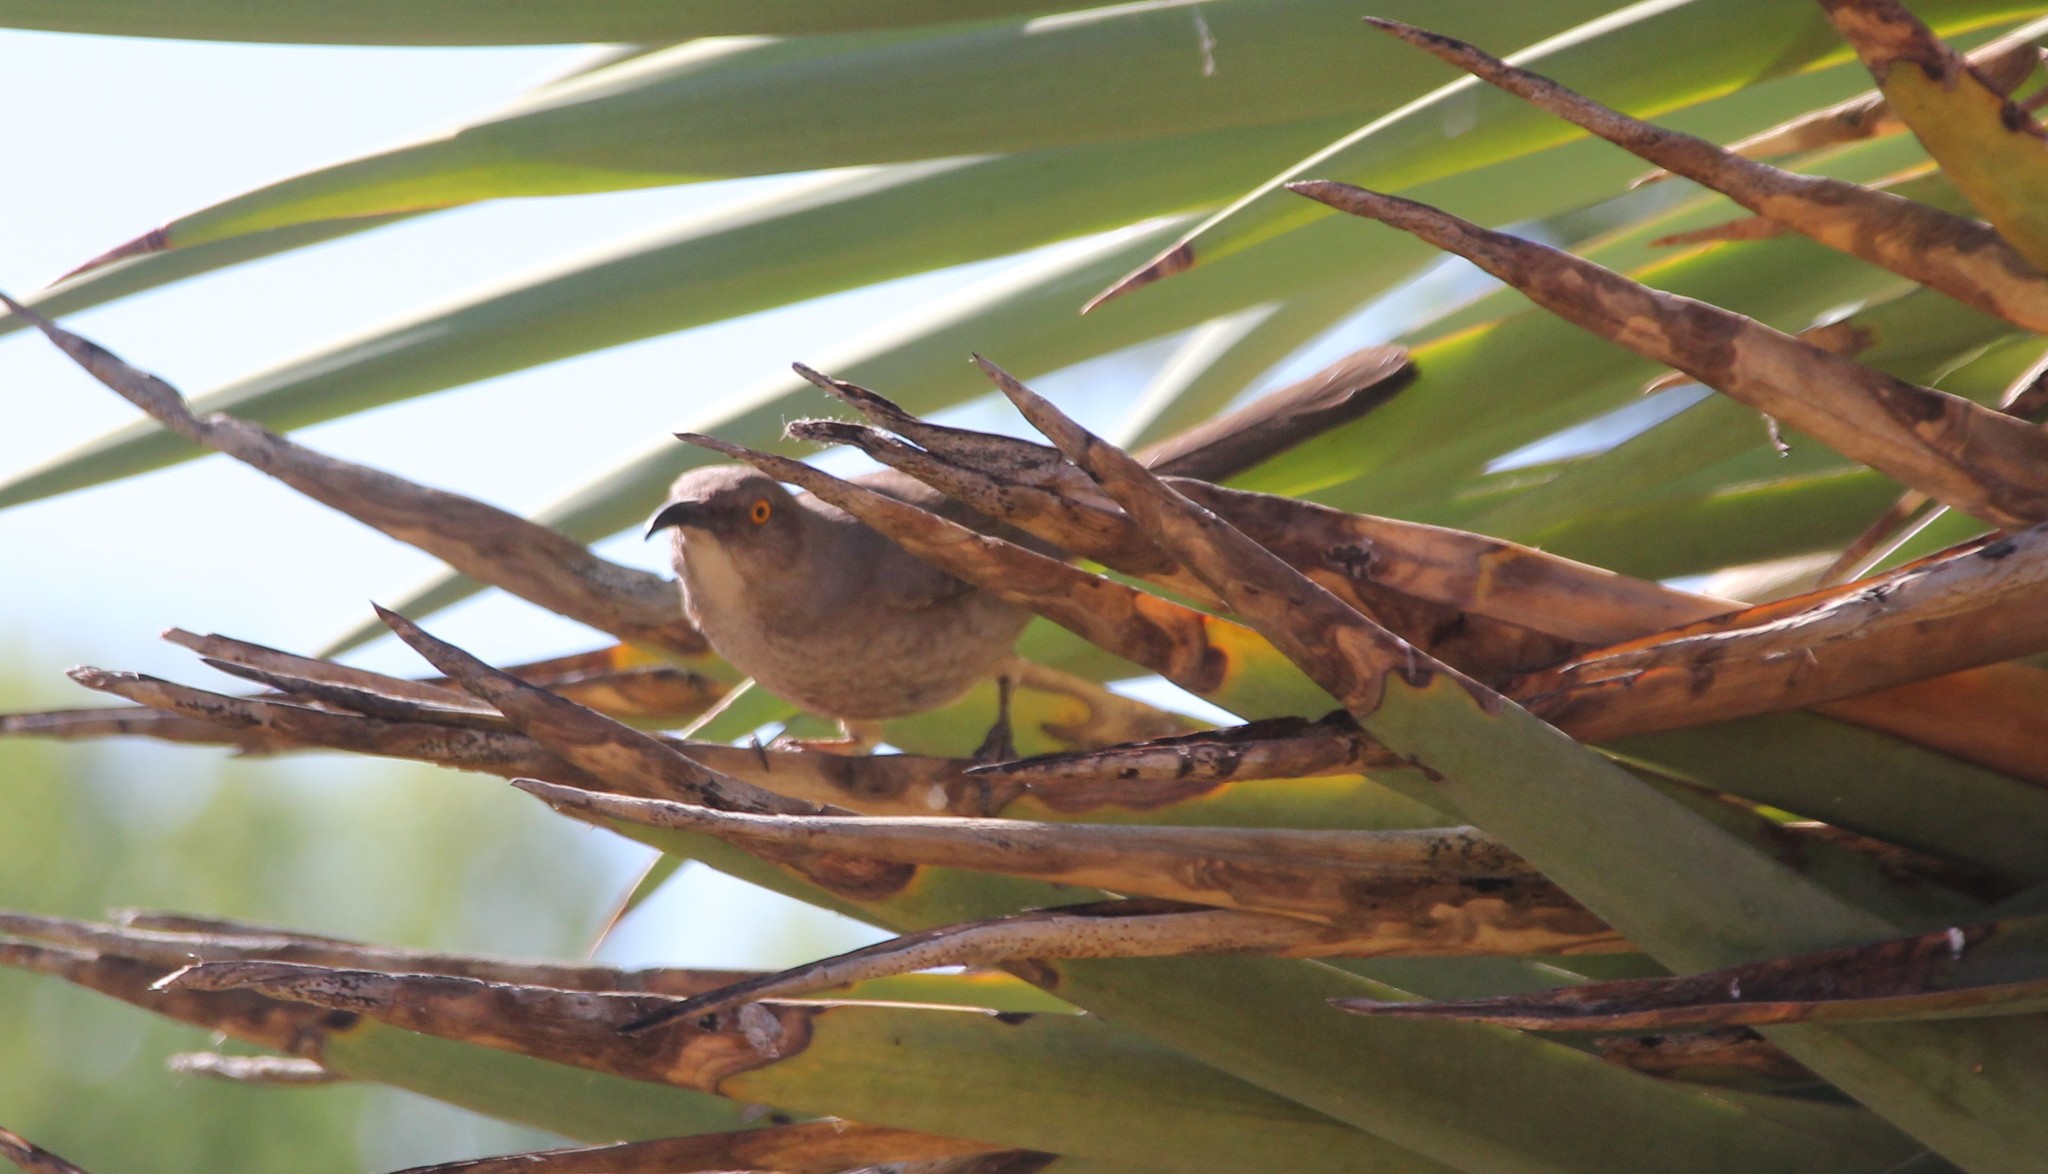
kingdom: Animalia
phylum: Chordata
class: Aves
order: Passeriformes
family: Mimidae
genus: Toxostoma
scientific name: Toxostoma curvirostre
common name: Curve-billed thrasher
